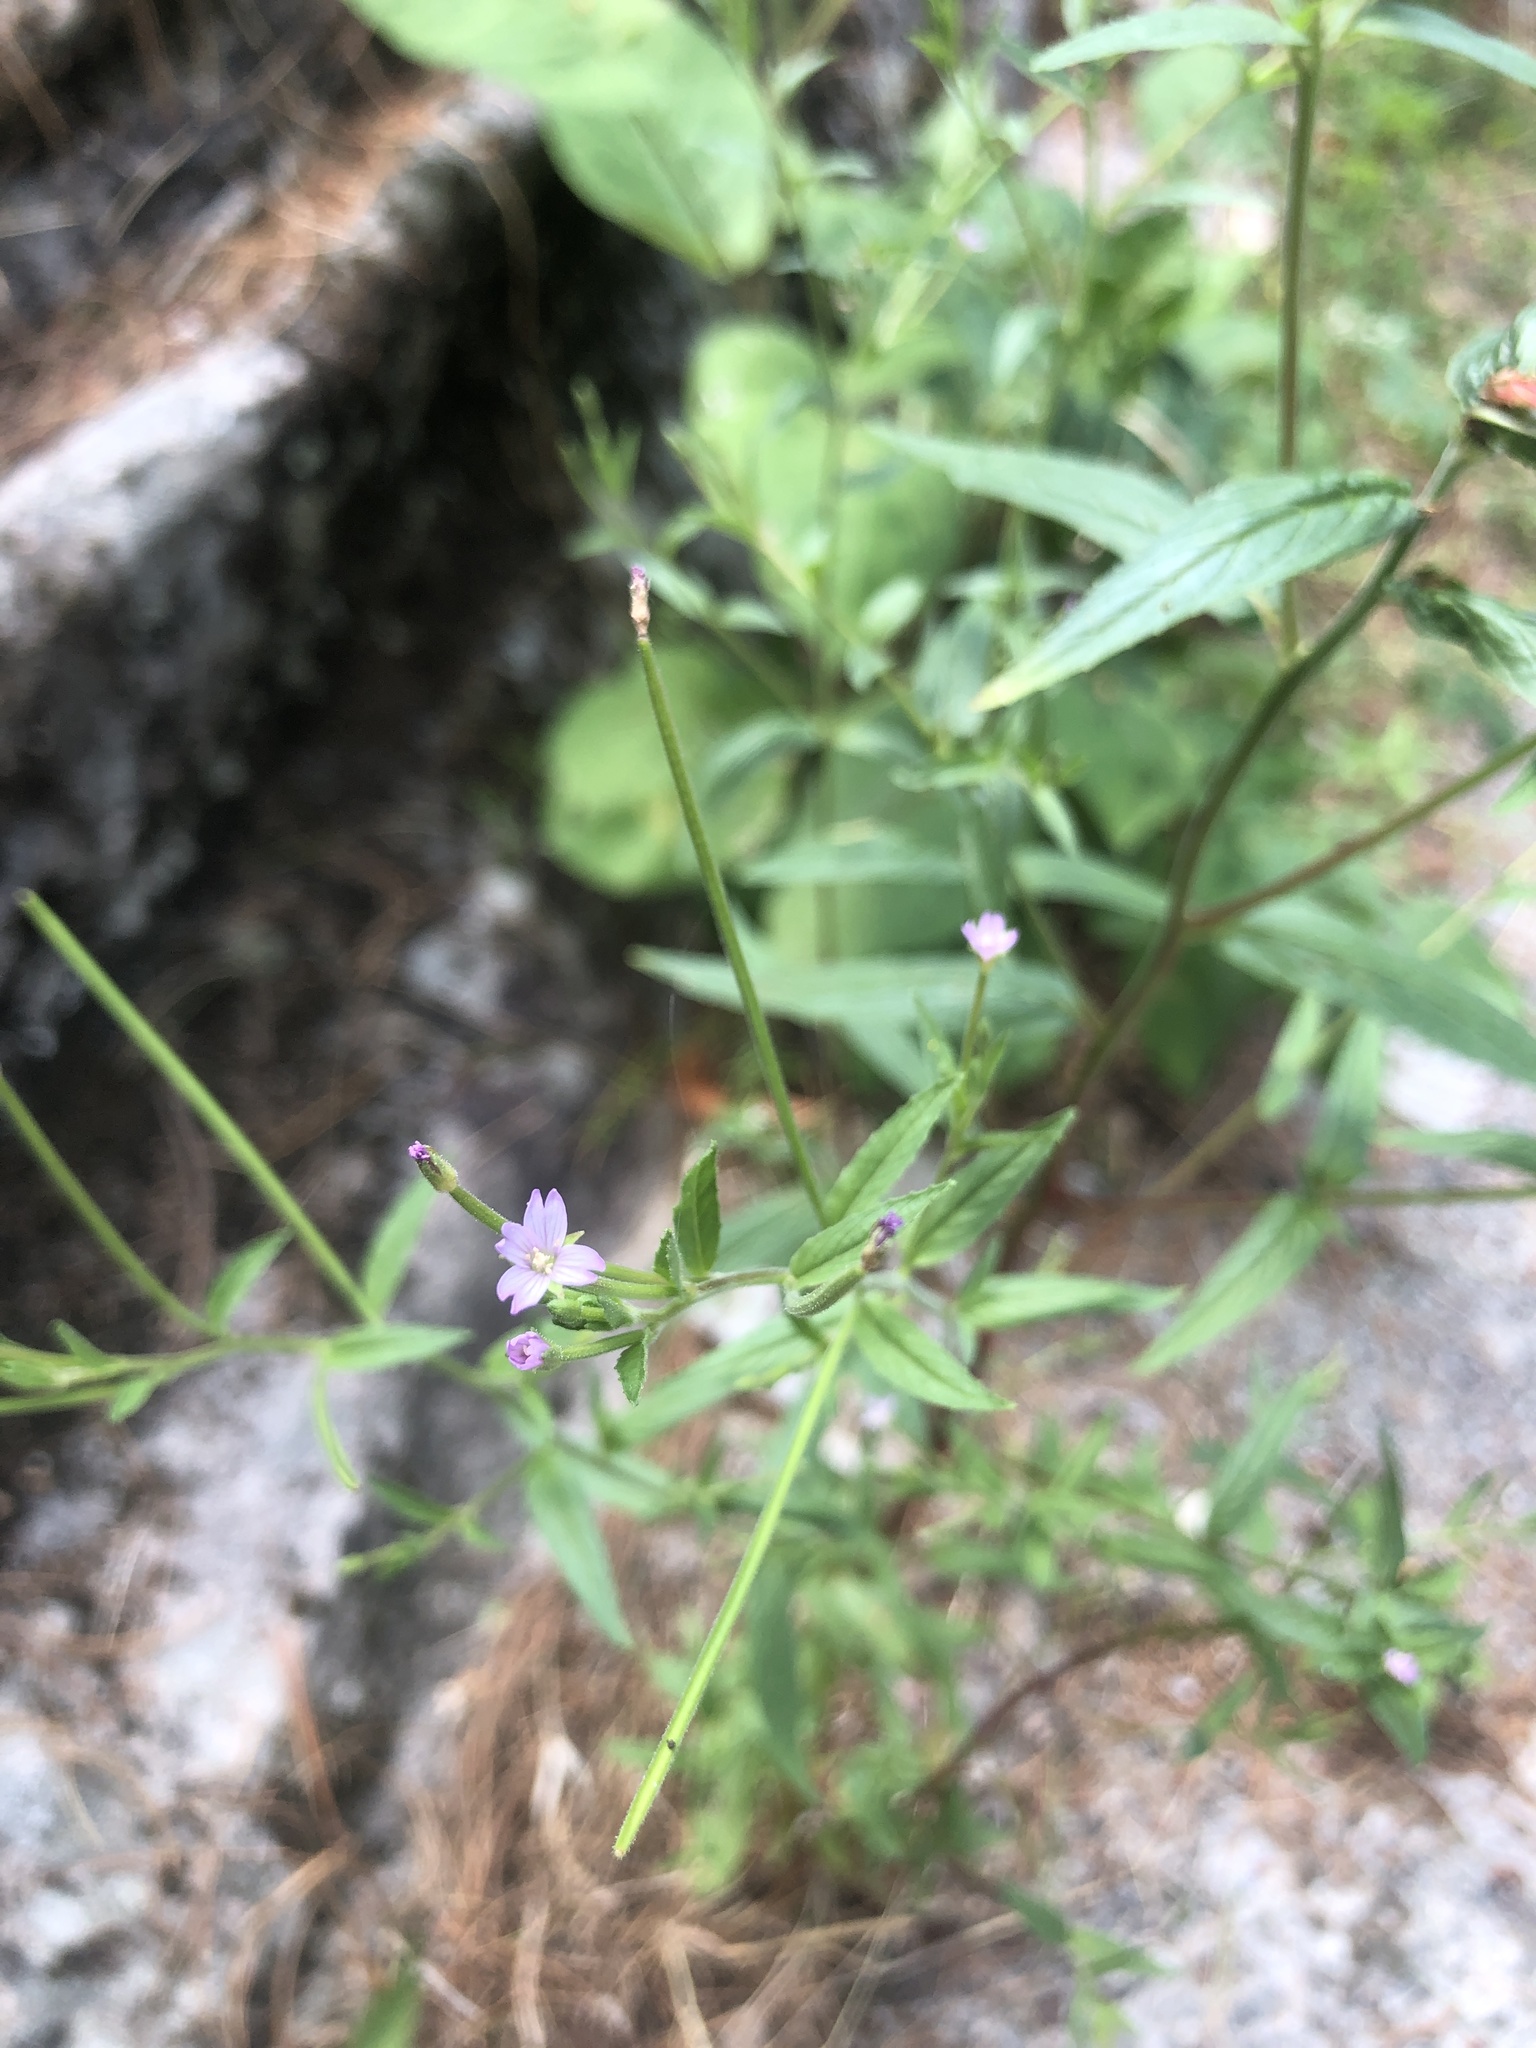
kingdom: Plantae
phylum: Tracheophyta
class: Magnoliopsida
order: Myrtales
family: Onagraceae
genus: Epilobium
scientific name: Epilobium ciliatum
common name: American willowherb
